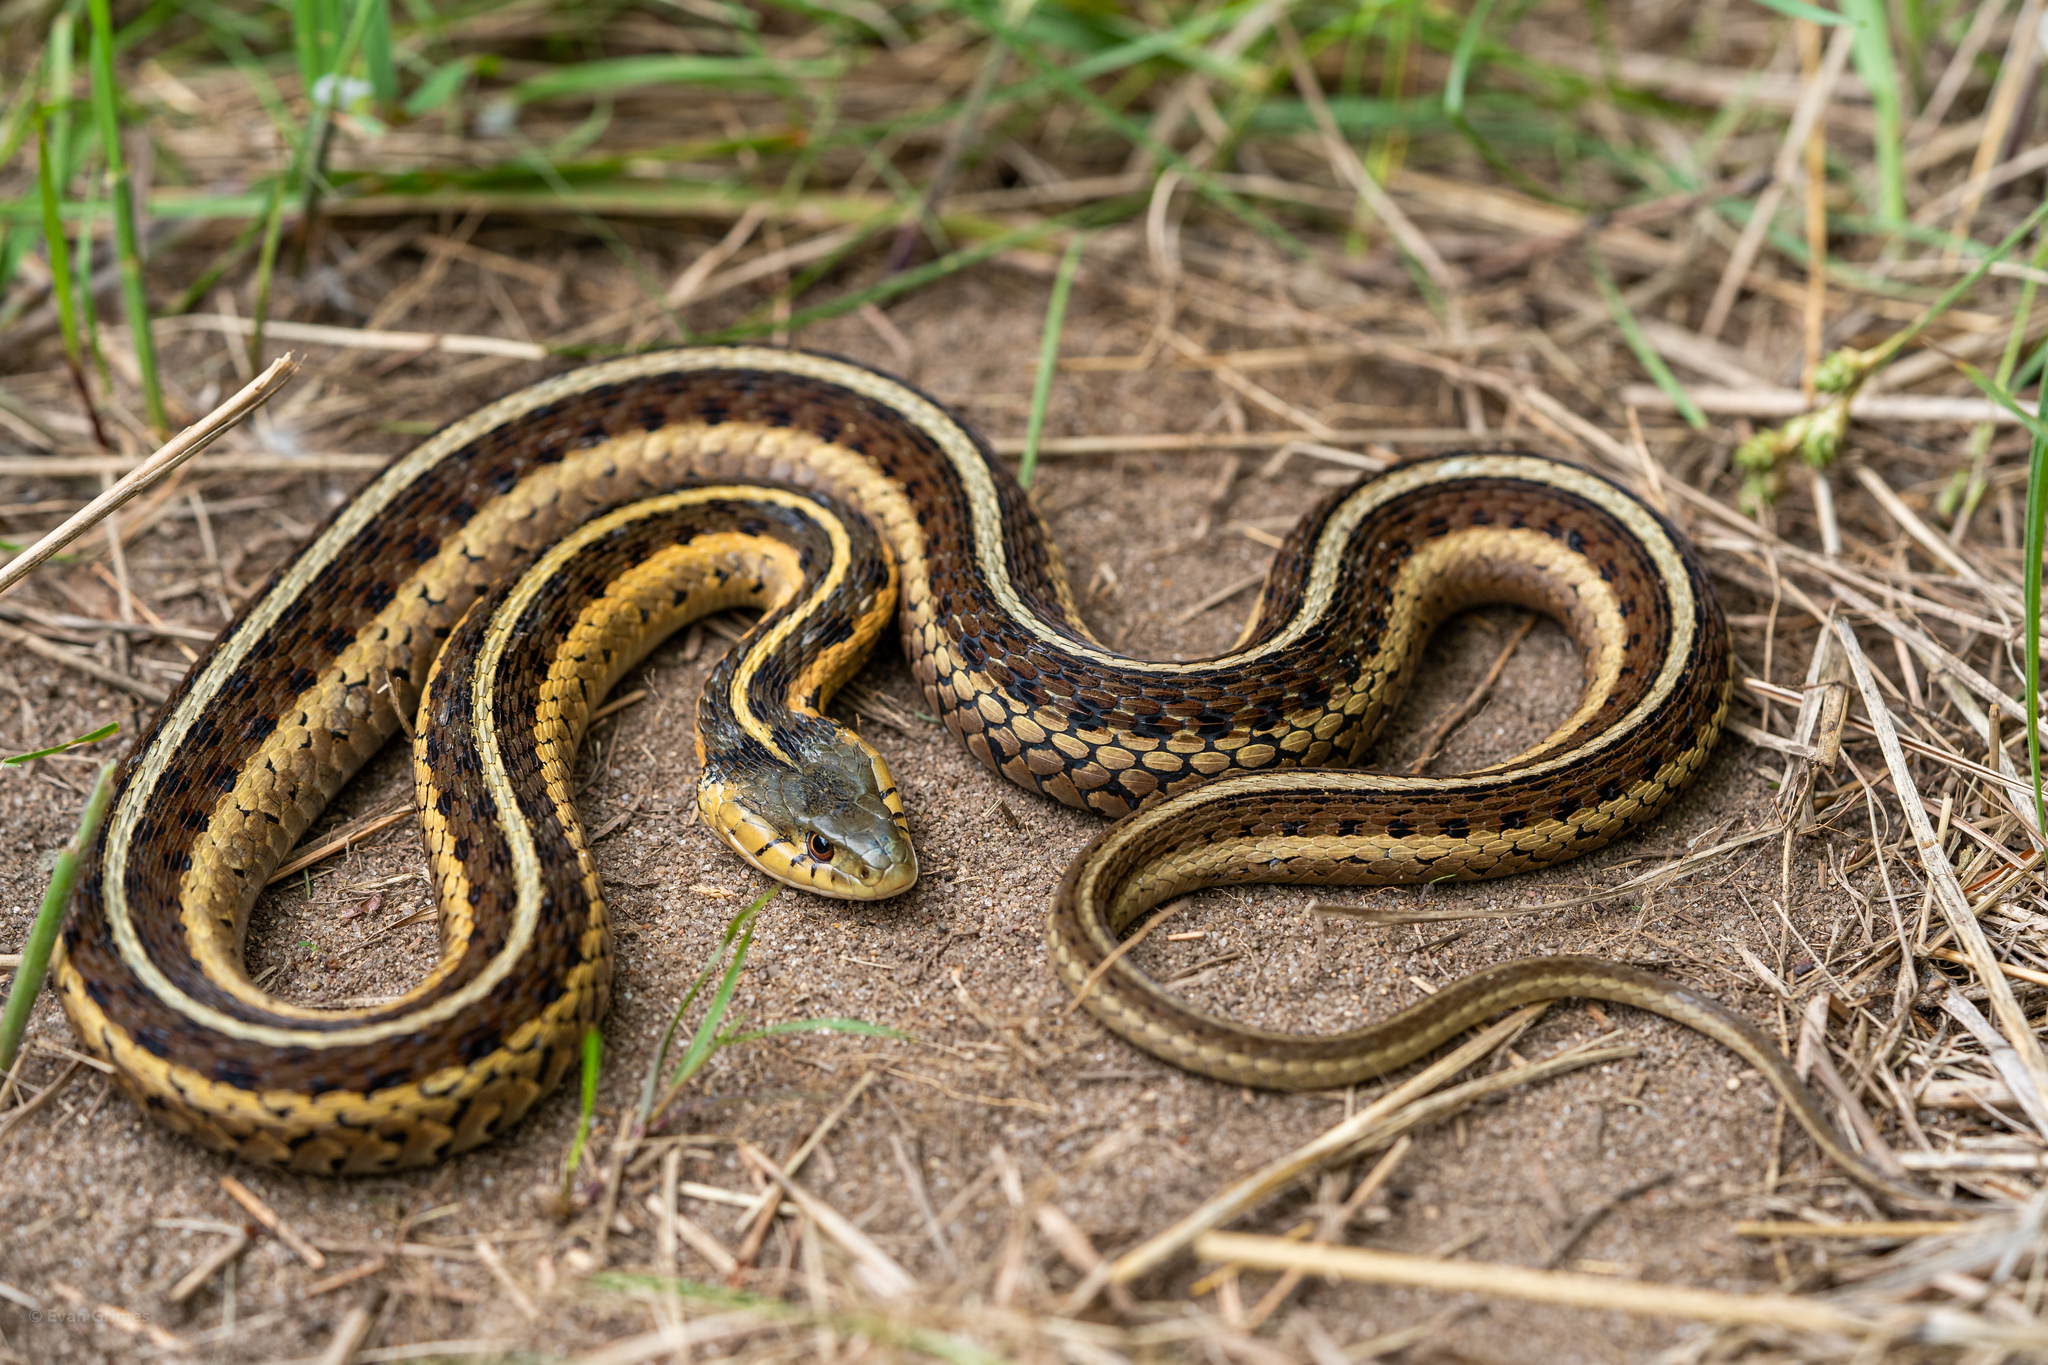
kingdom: Animalia
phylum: Chordata
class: Squamata
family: Colubridae
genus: Thamnophis
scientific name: Thamnophis sirtalis
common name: Common garter snake
